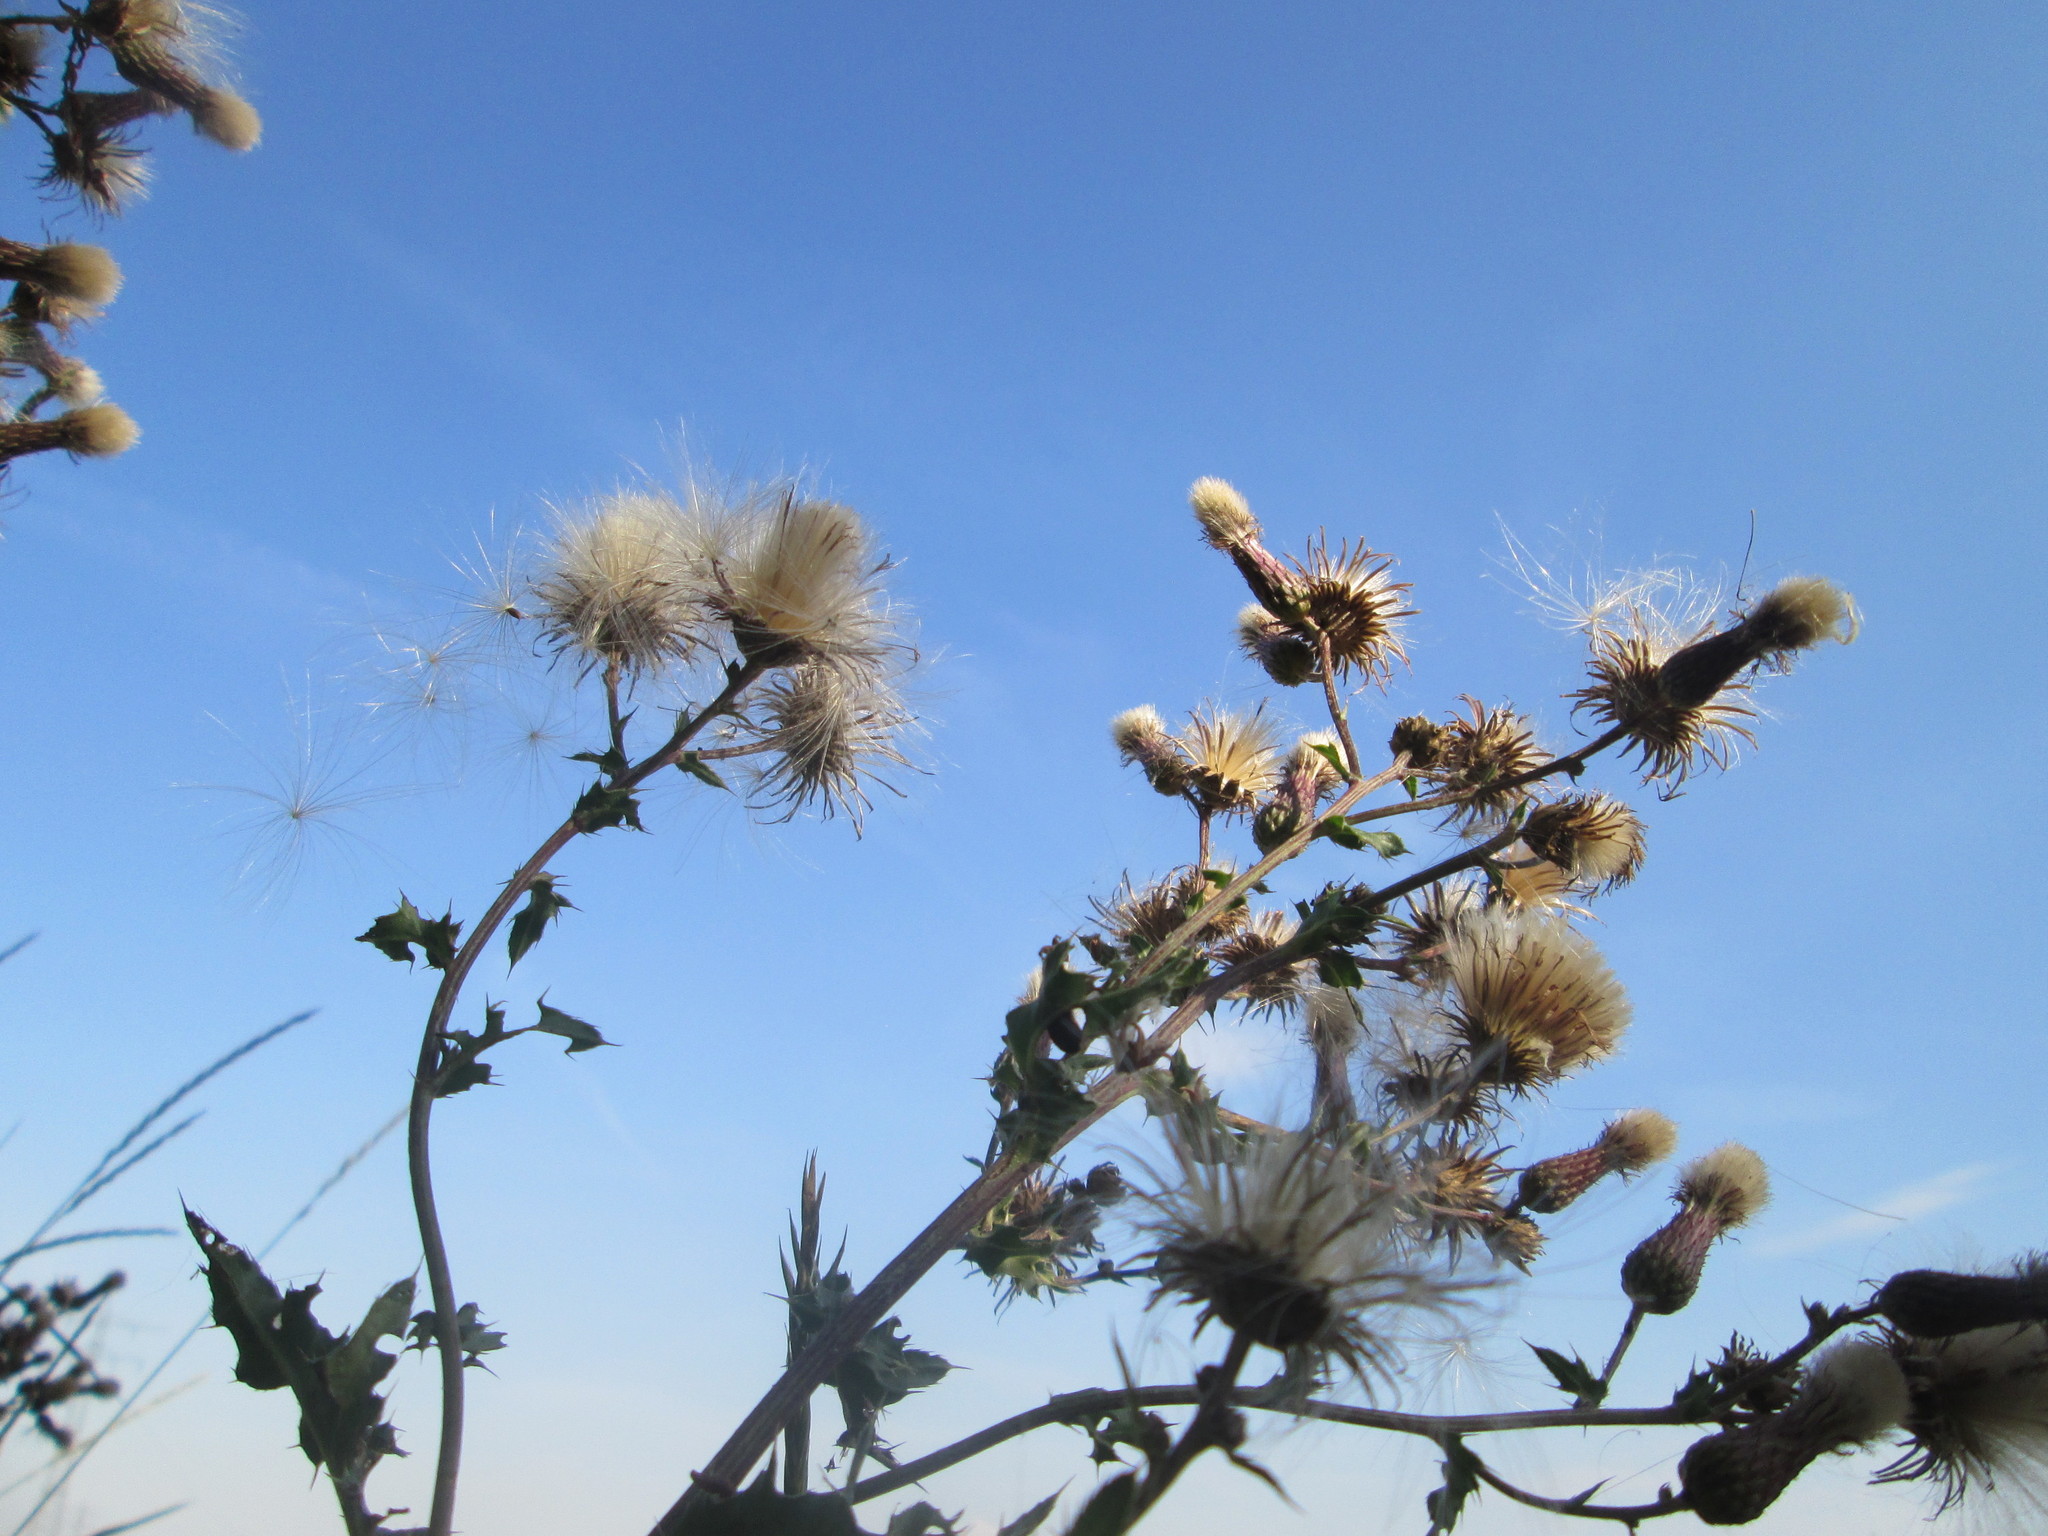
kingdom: Plantae
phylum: Tracheophyta
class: Magnoliopsida
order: Asterales
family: Asteraceae
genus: Cirsium
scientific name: Cirsium arvense
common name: Creeping thistle
